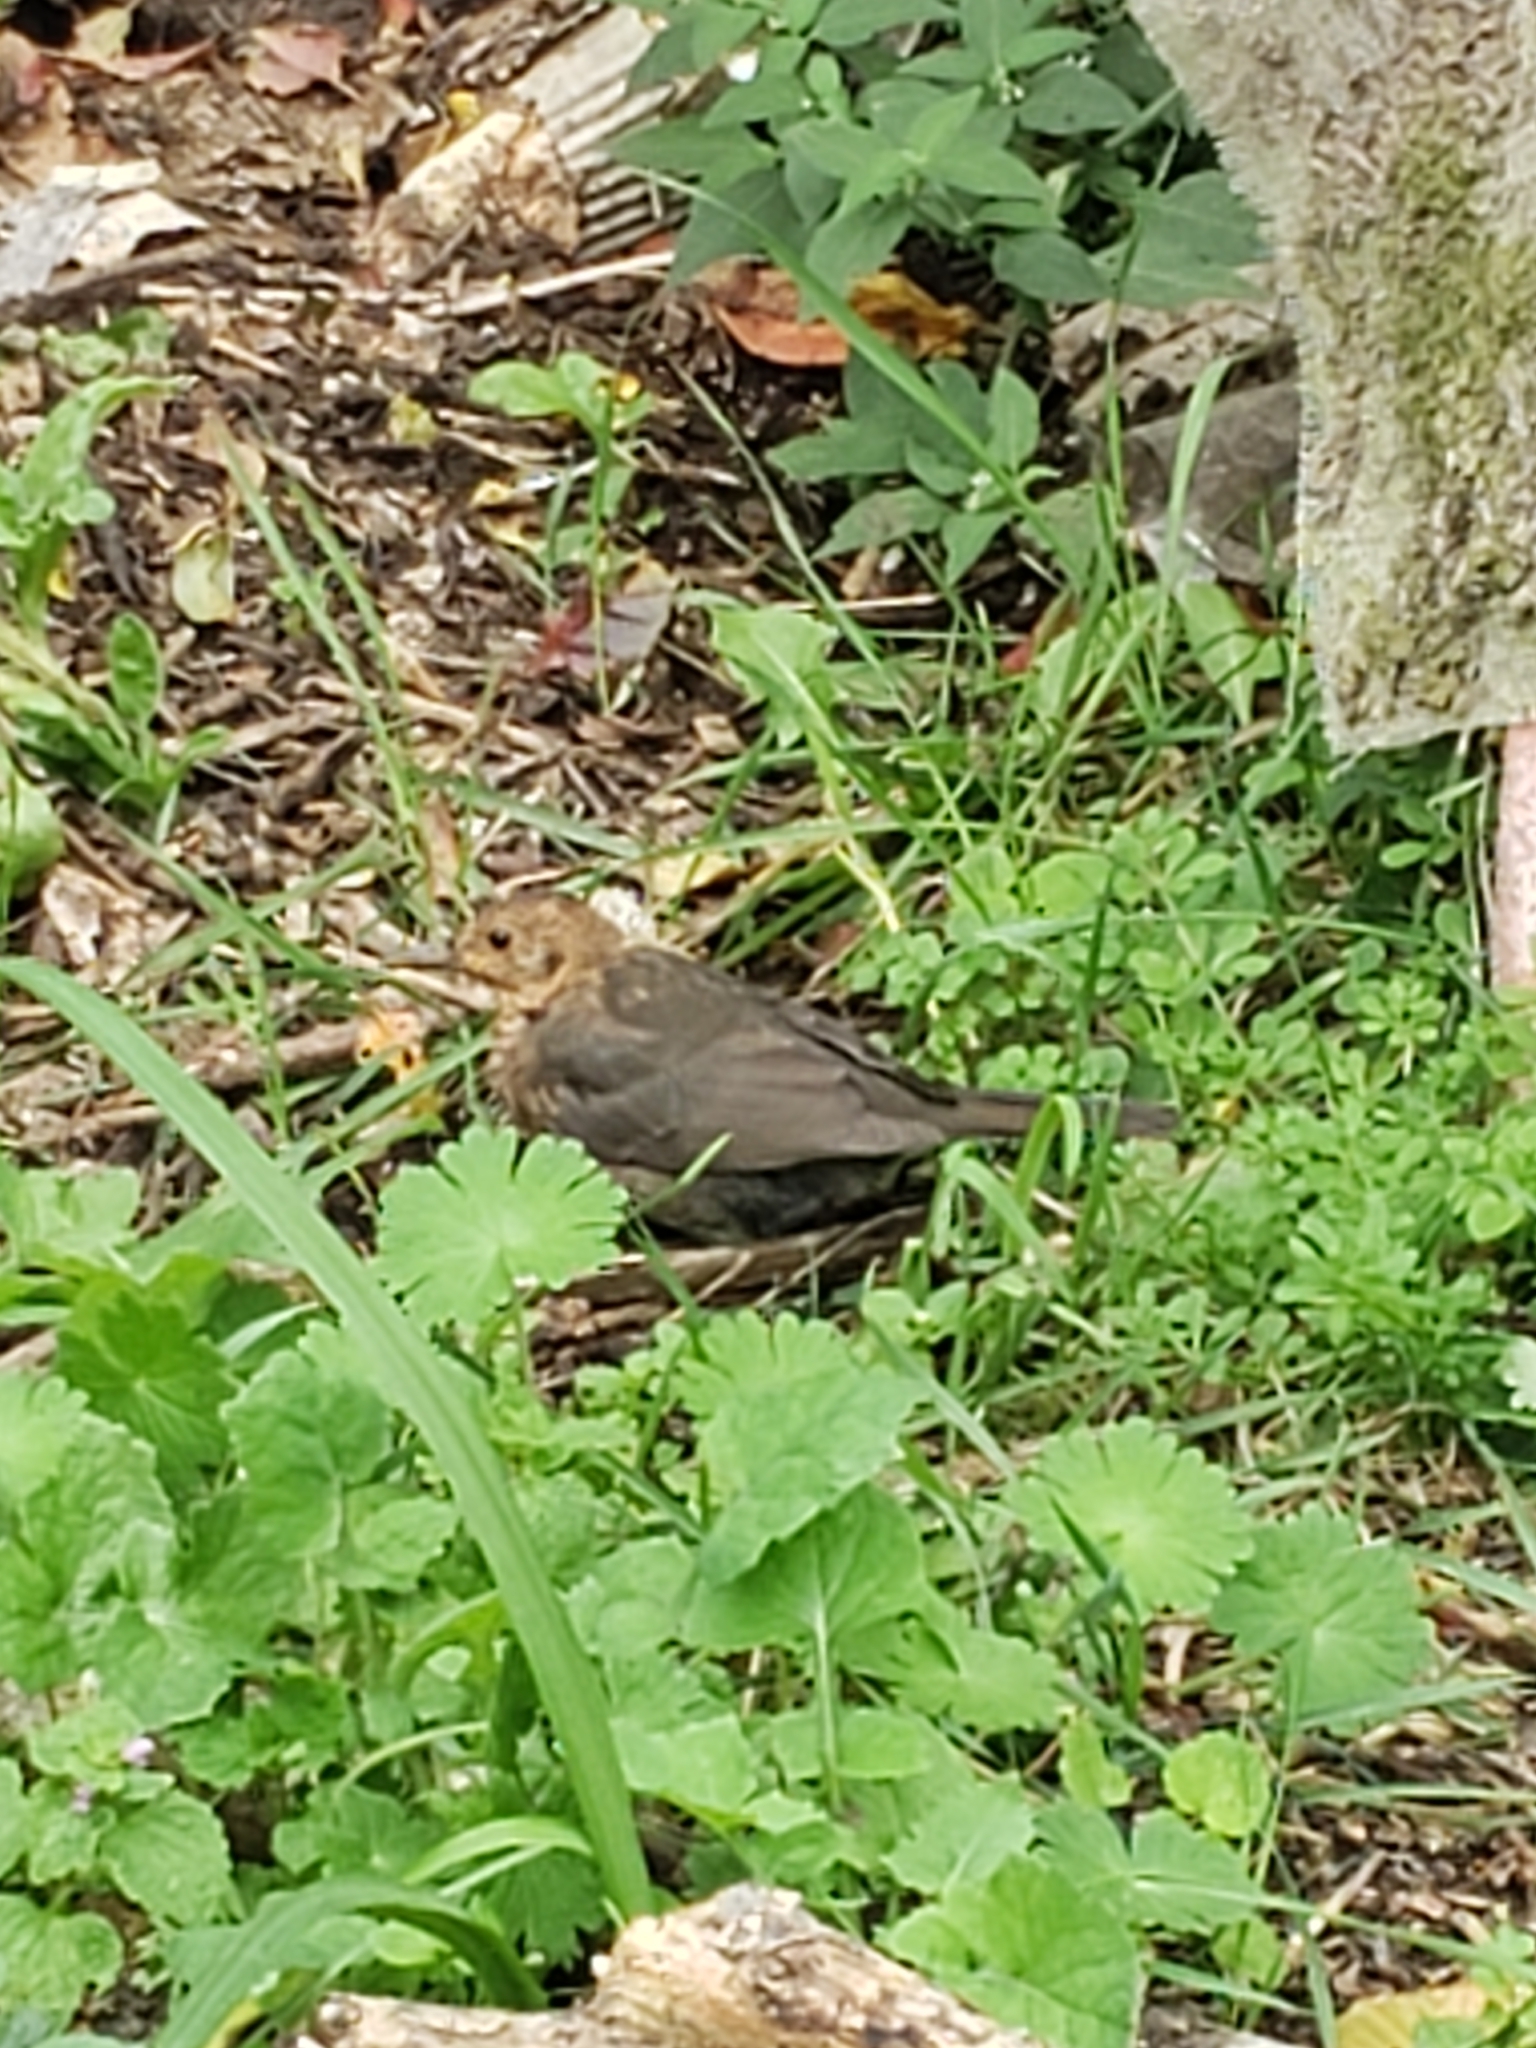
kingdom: Animalia
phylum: Chordata
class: Aves
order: Passeriformes
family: Turdidae
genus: Turdus
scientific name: Turdus merula
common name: Common blackbird
